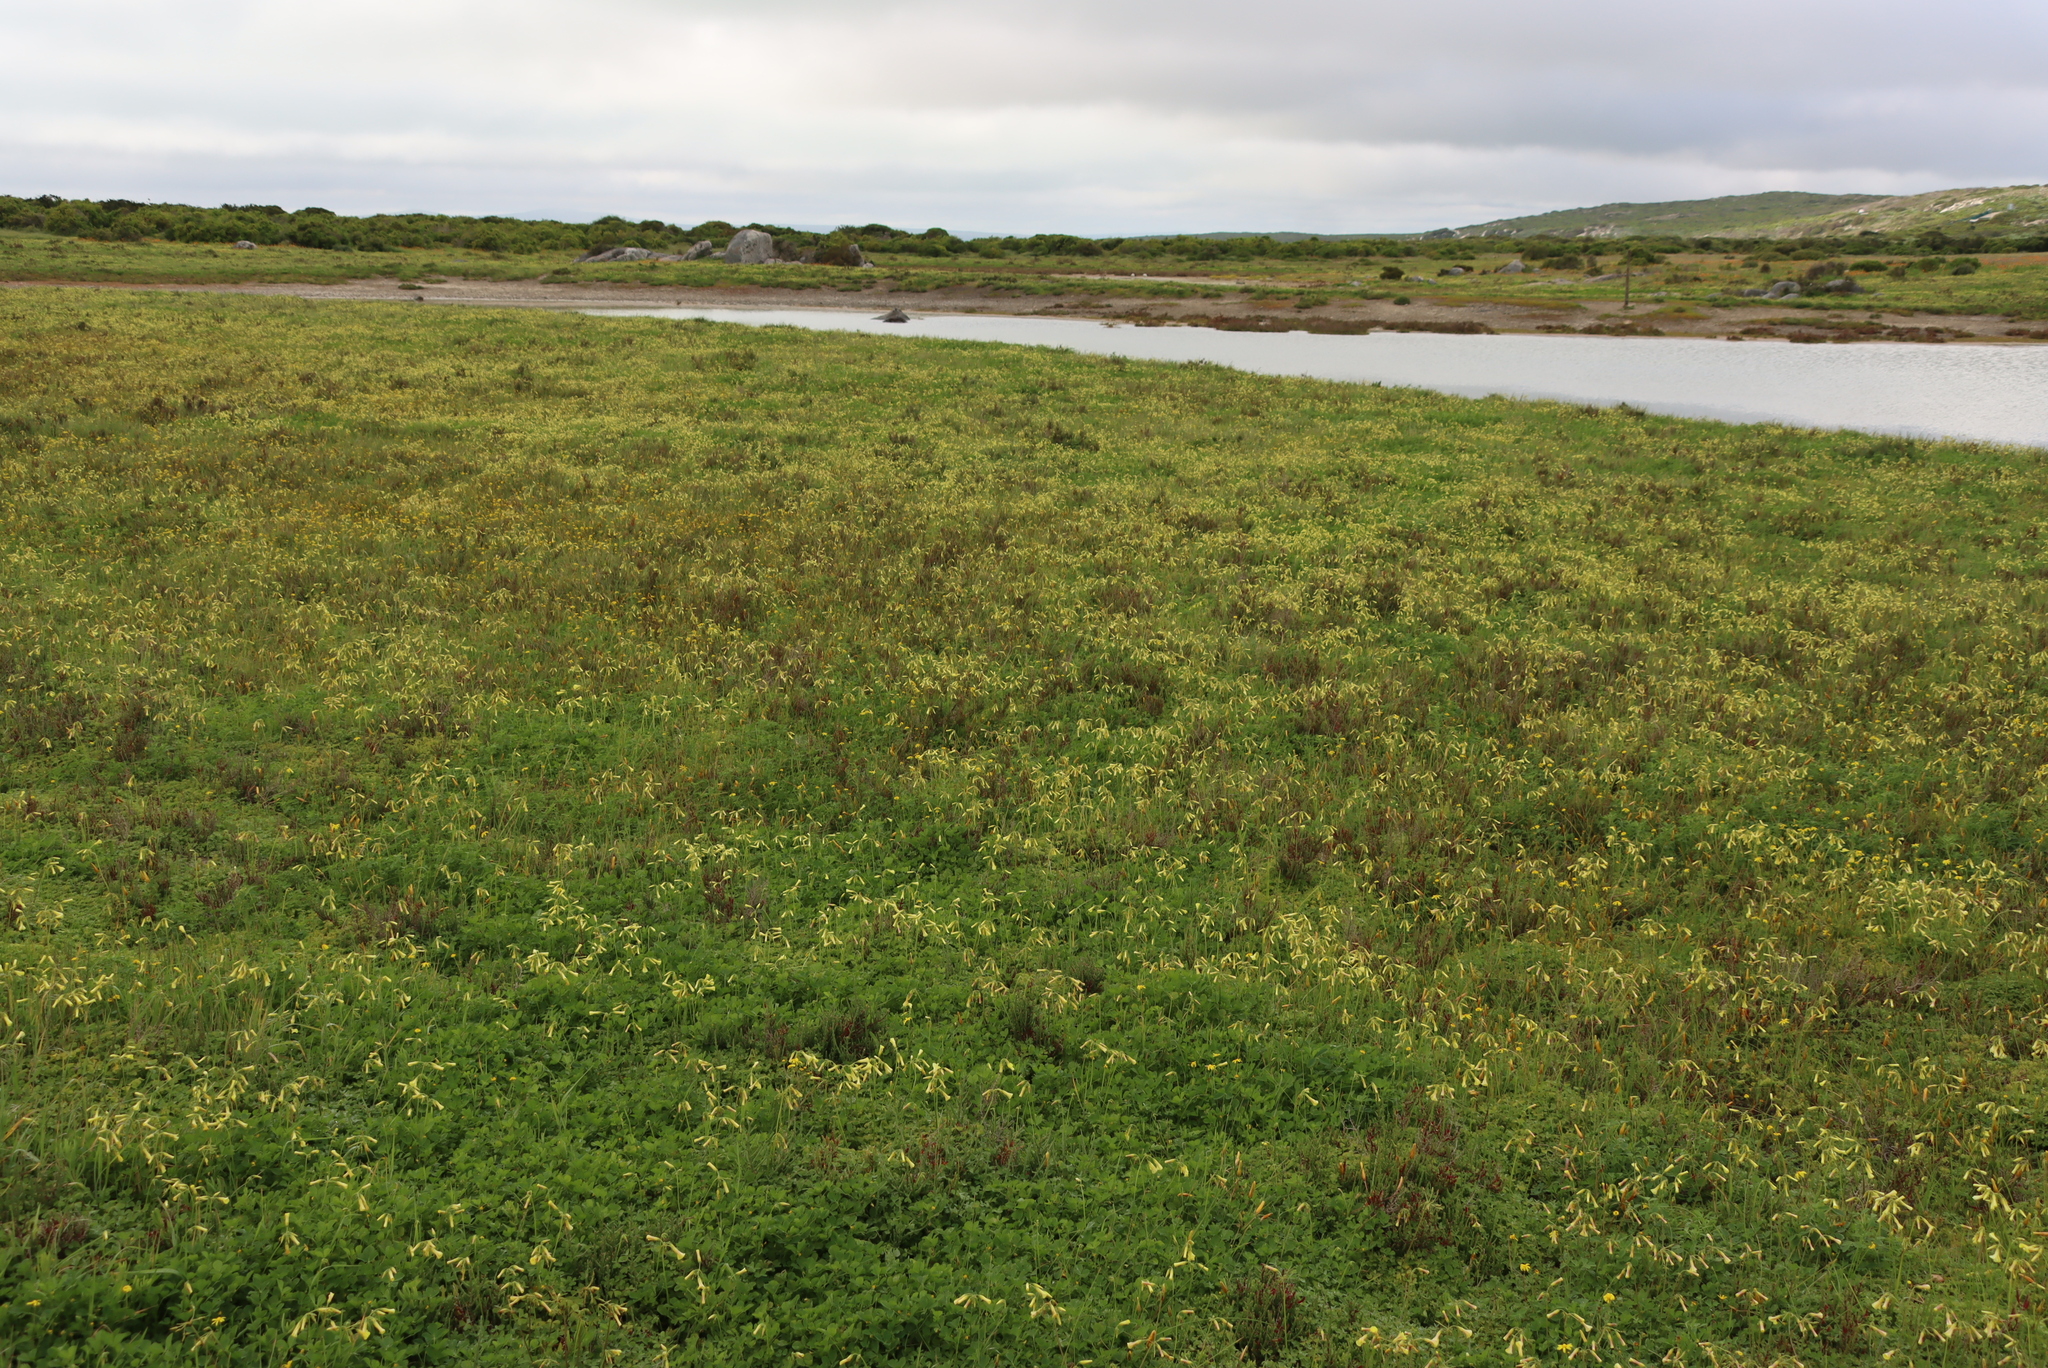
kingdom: Plantae
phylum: Tracheophyta
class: Magnoliopsida
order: Oxalidales
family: Oxalidaceae
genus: Oxalis
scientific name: Oxalis pes-caprae
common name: Bermuda-buttercup
